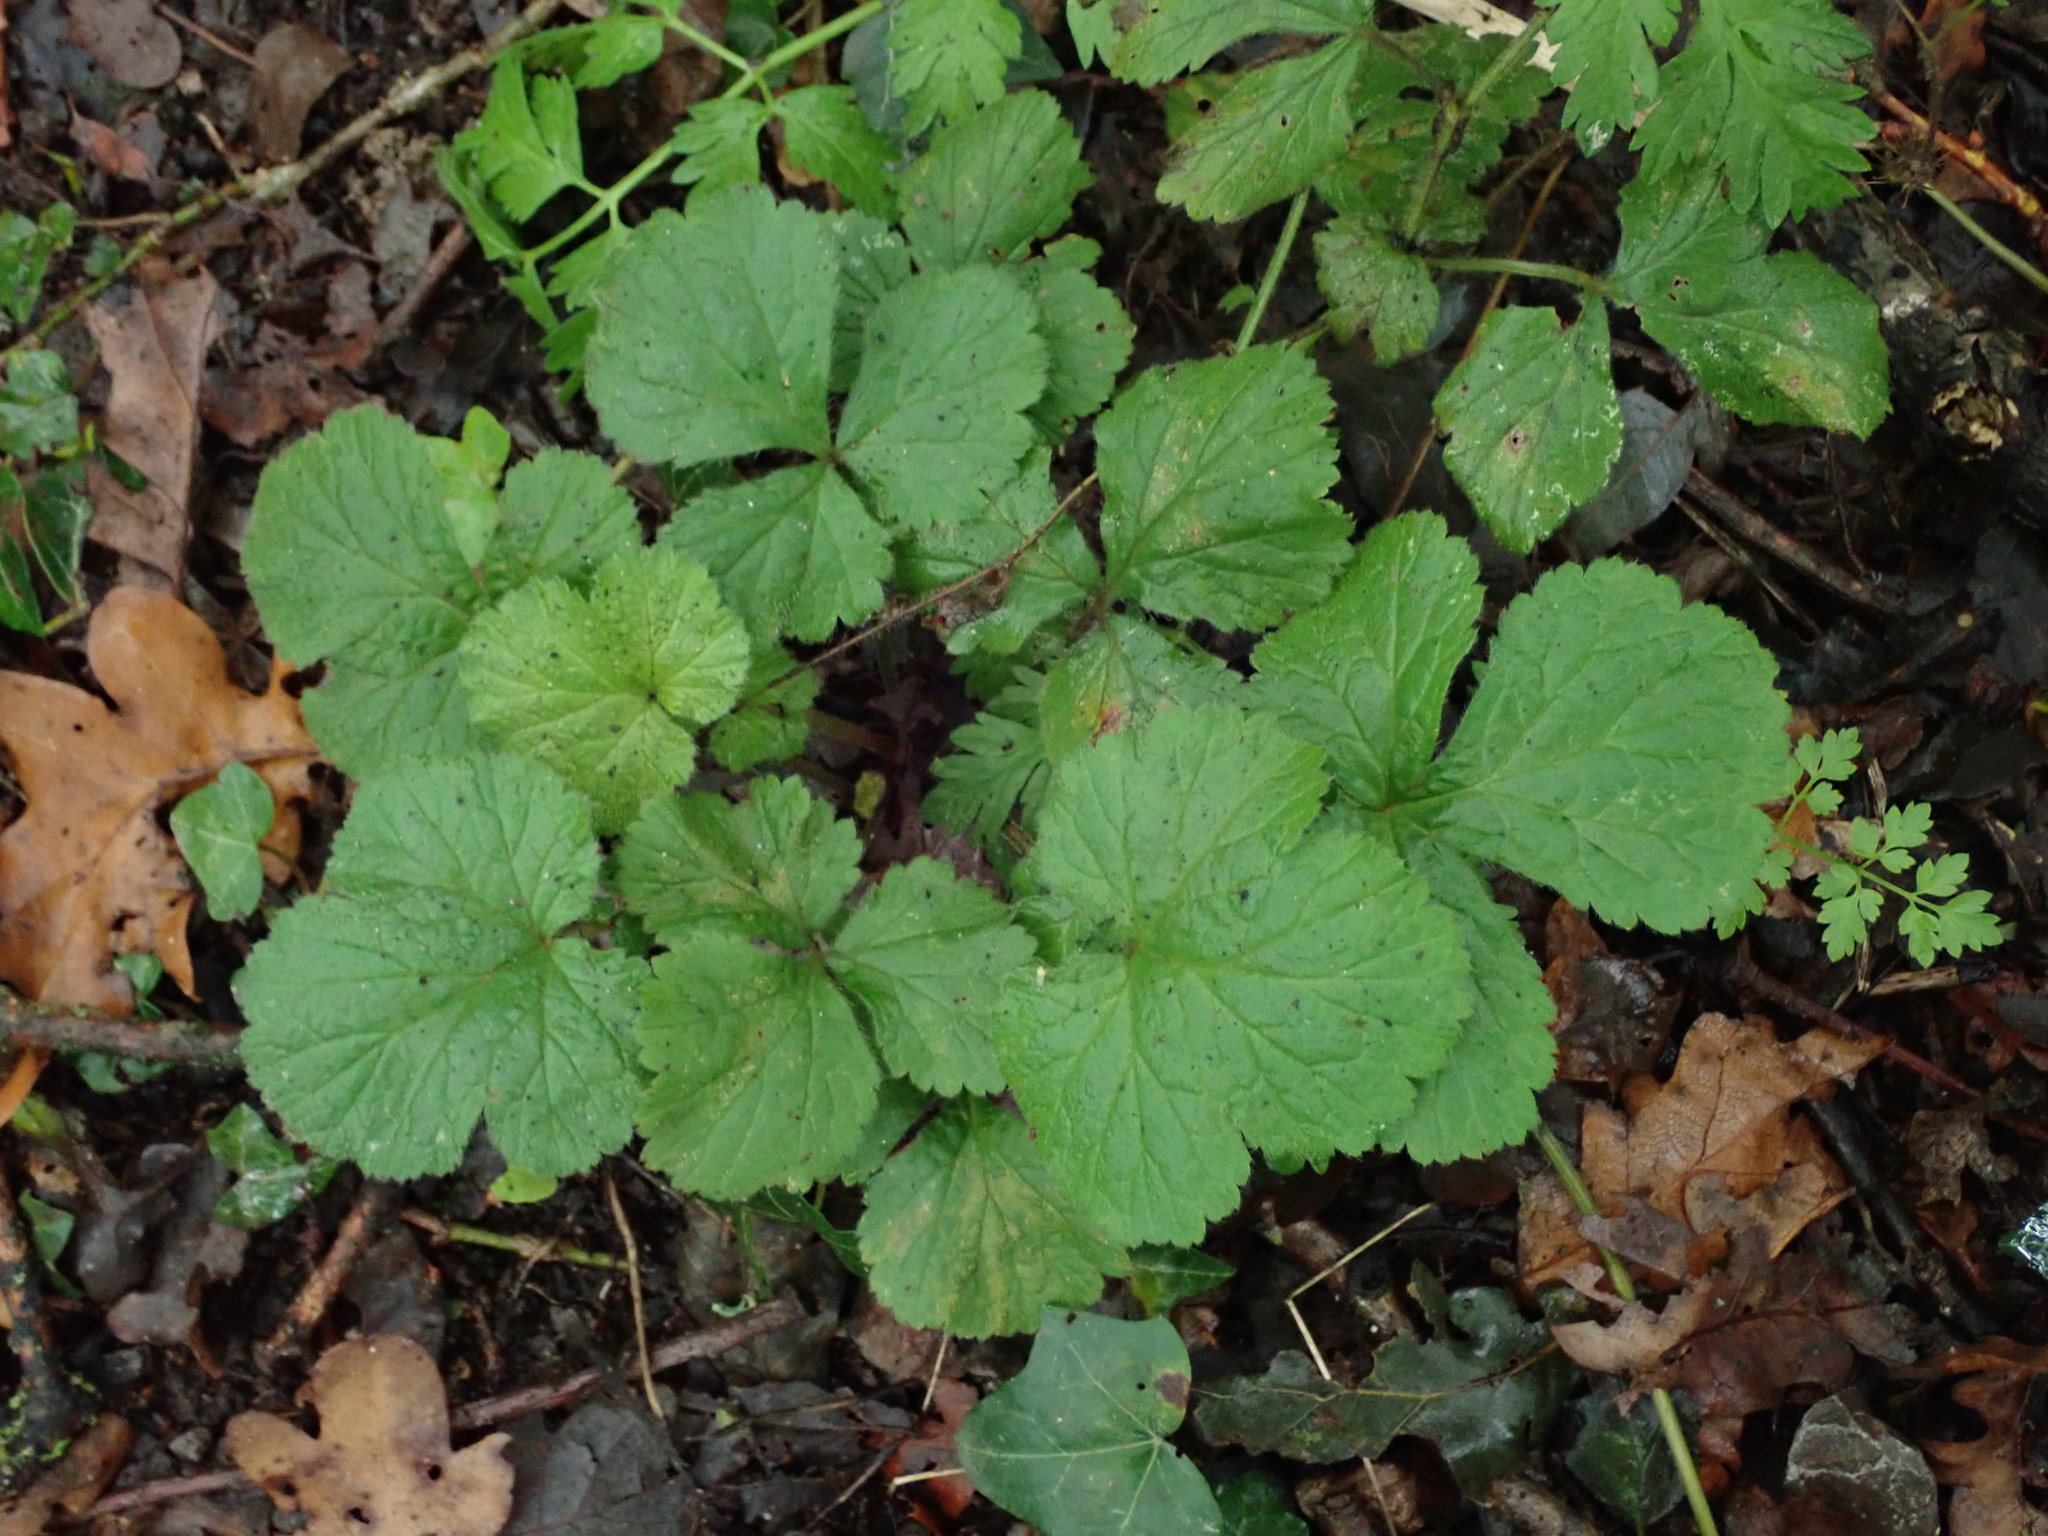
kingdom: Plantae
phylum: Tracheophyta
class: Magnoliopsida
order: Rosales
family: Rosaceae
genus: Geum
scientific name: Geum urbanum
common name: Wood avens
